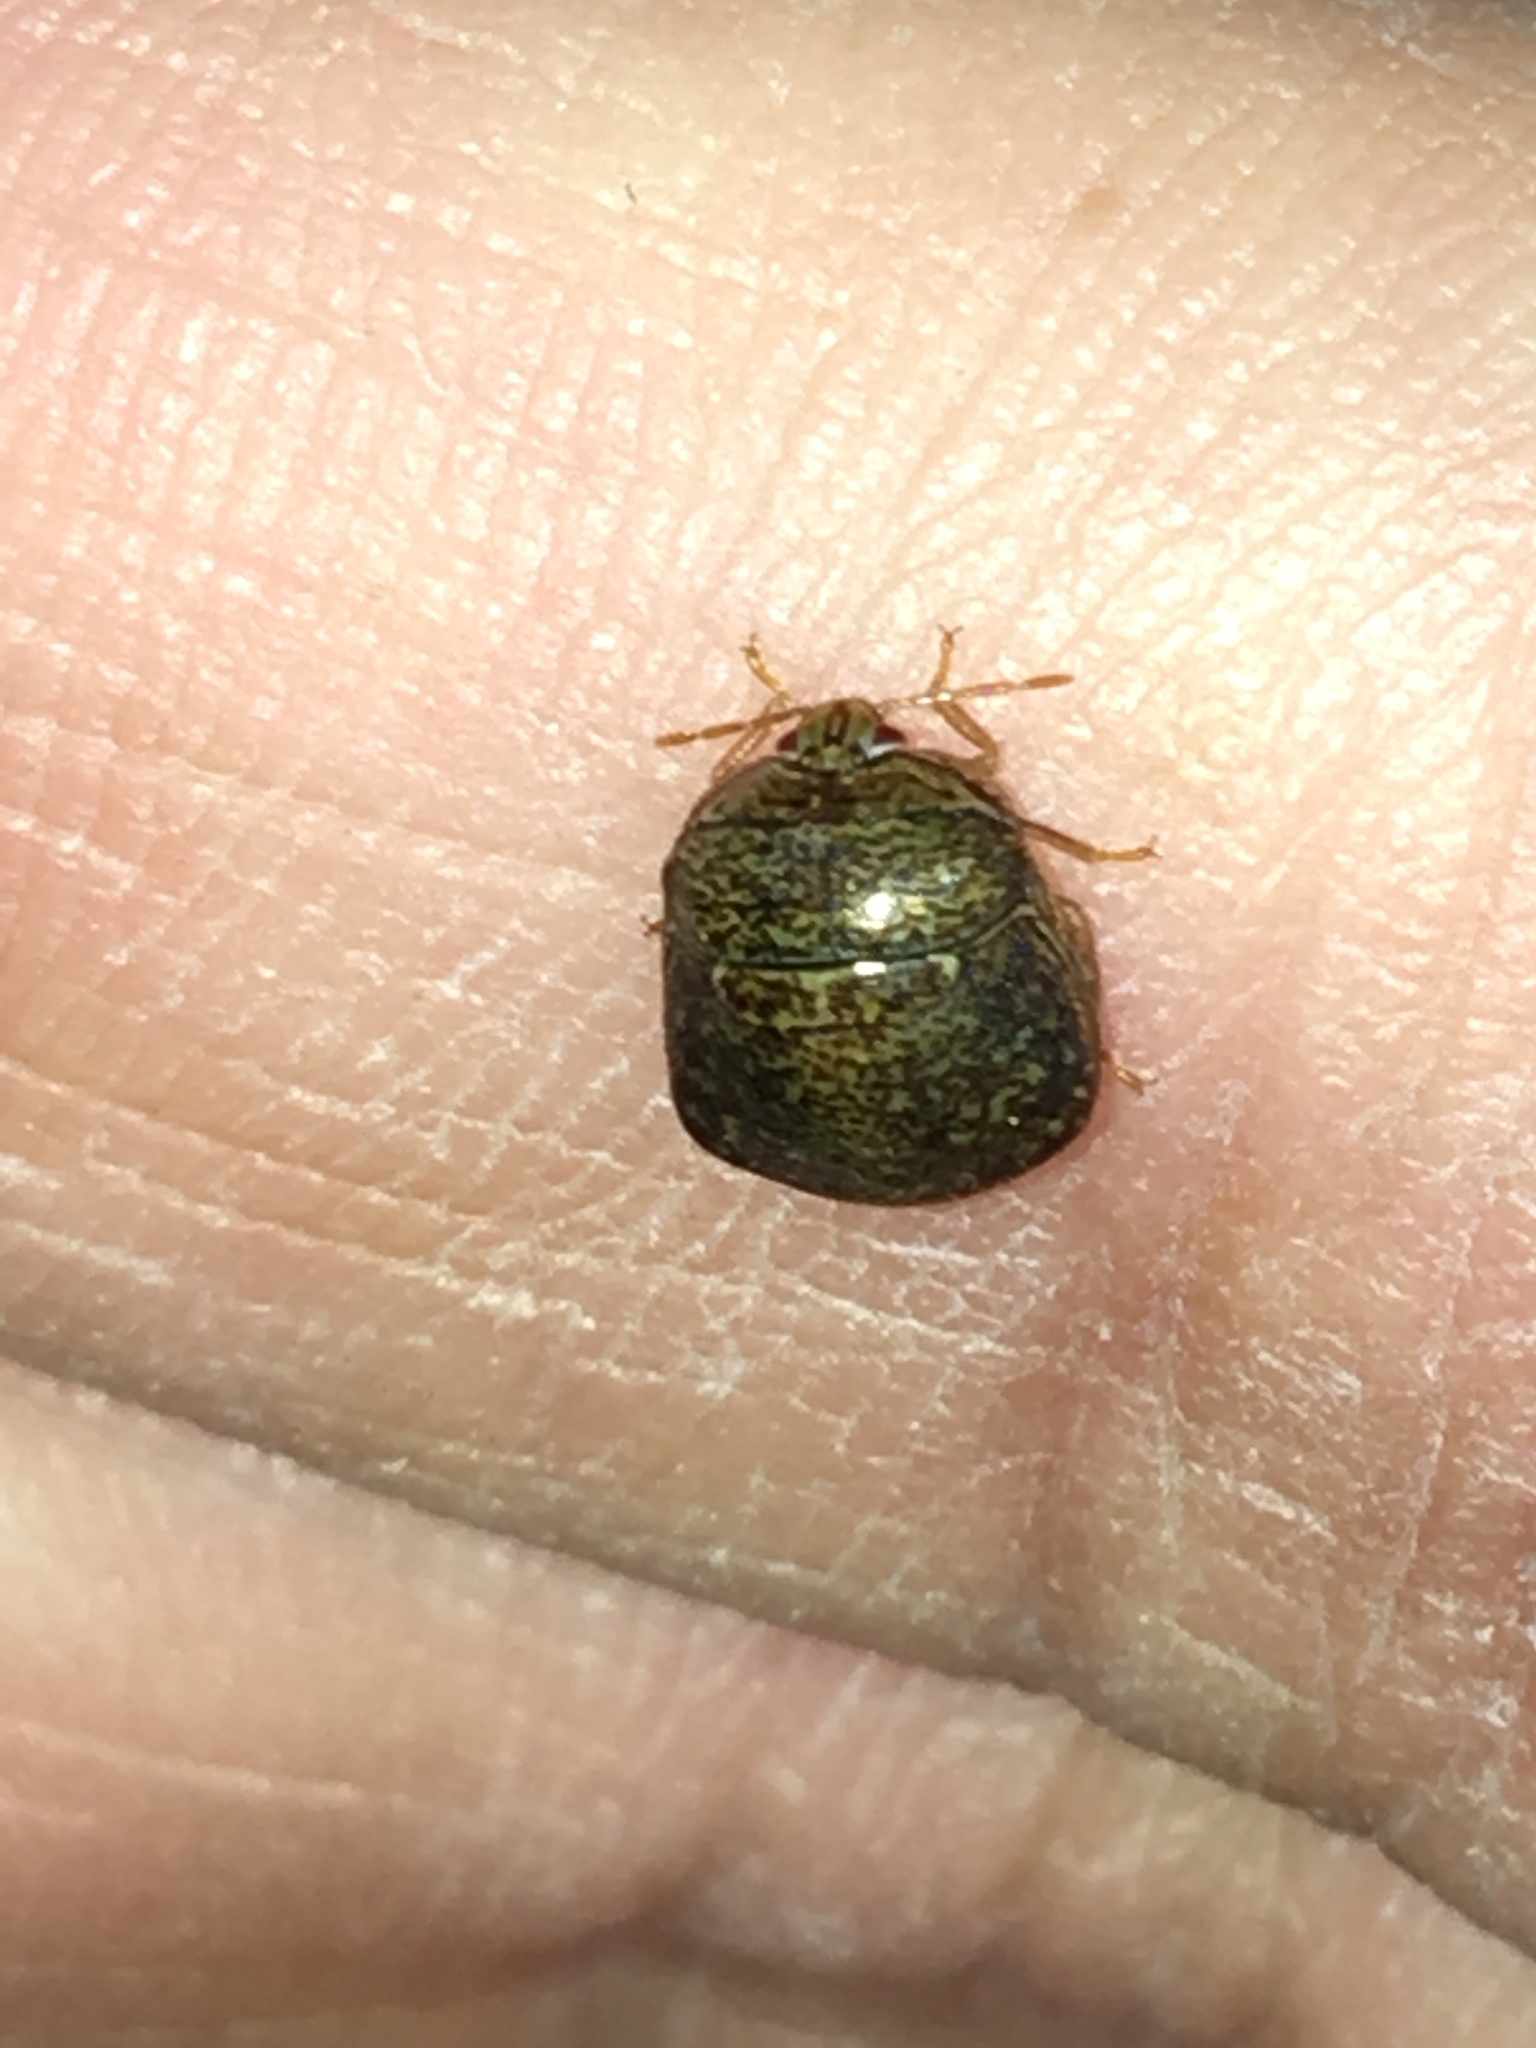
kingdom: Animalia
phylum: Arthropoda
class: Insecta
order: Hemiptera
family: Plataspidae
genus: Megacopta
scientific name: Megacopta cribraria
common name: Bean plataspid
